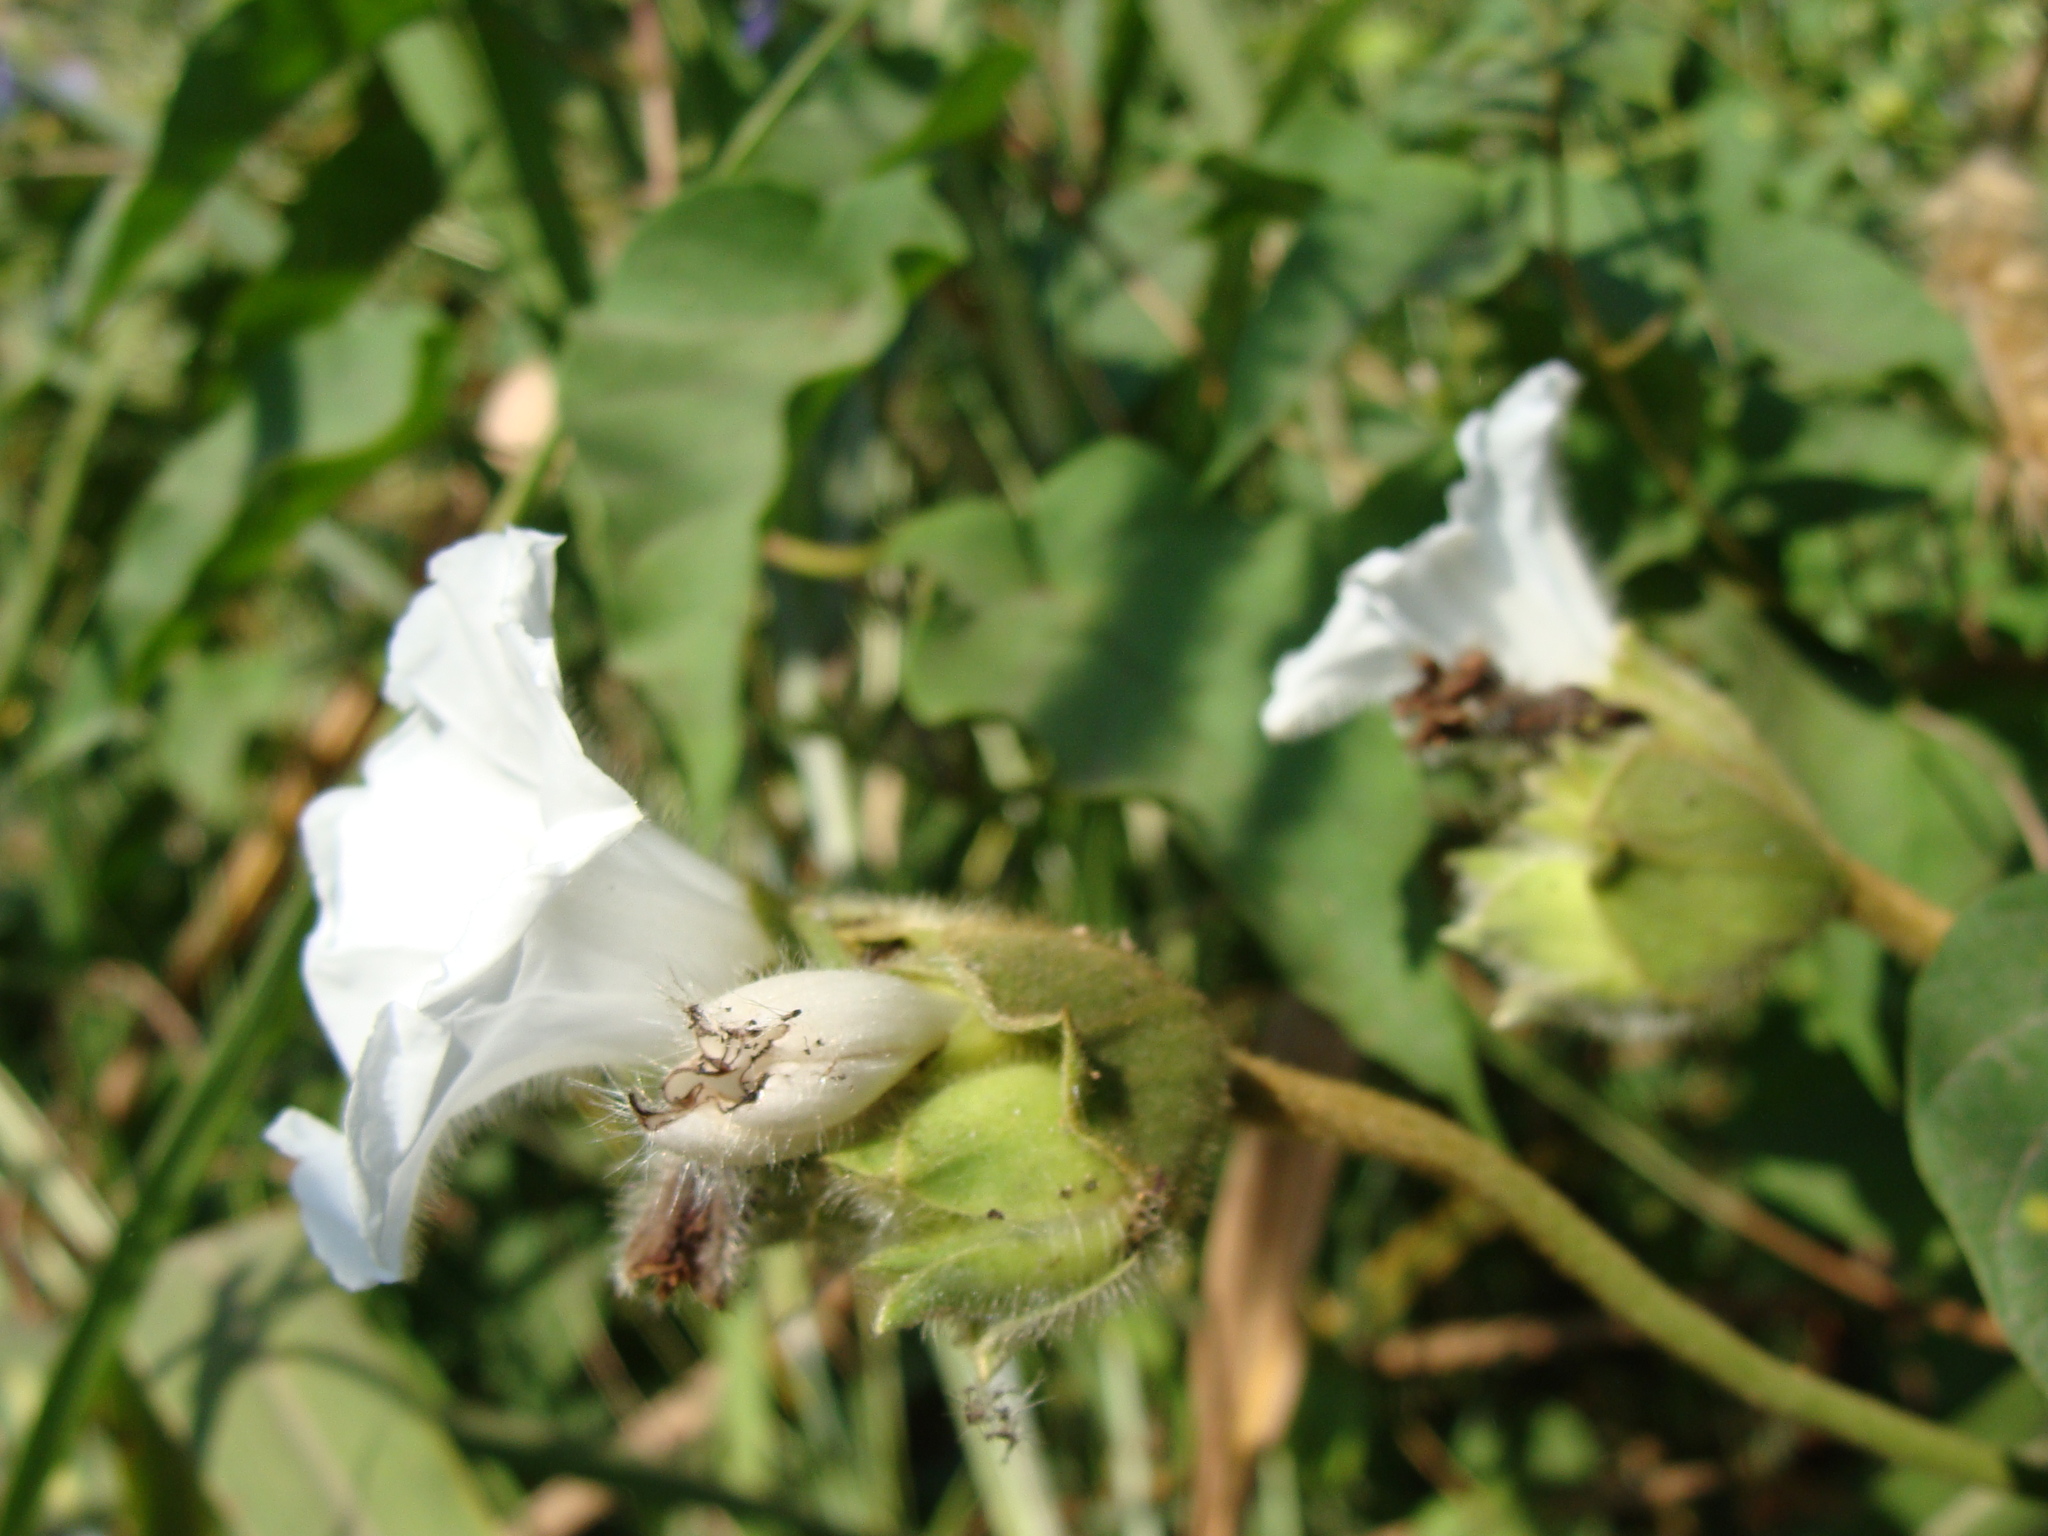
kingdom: Plantae
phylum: Tracheophyta
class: Magnoliopsida
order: Solanales
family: Convolvulaceae
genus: Odonellia
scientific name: Odonellia hirtiflora
